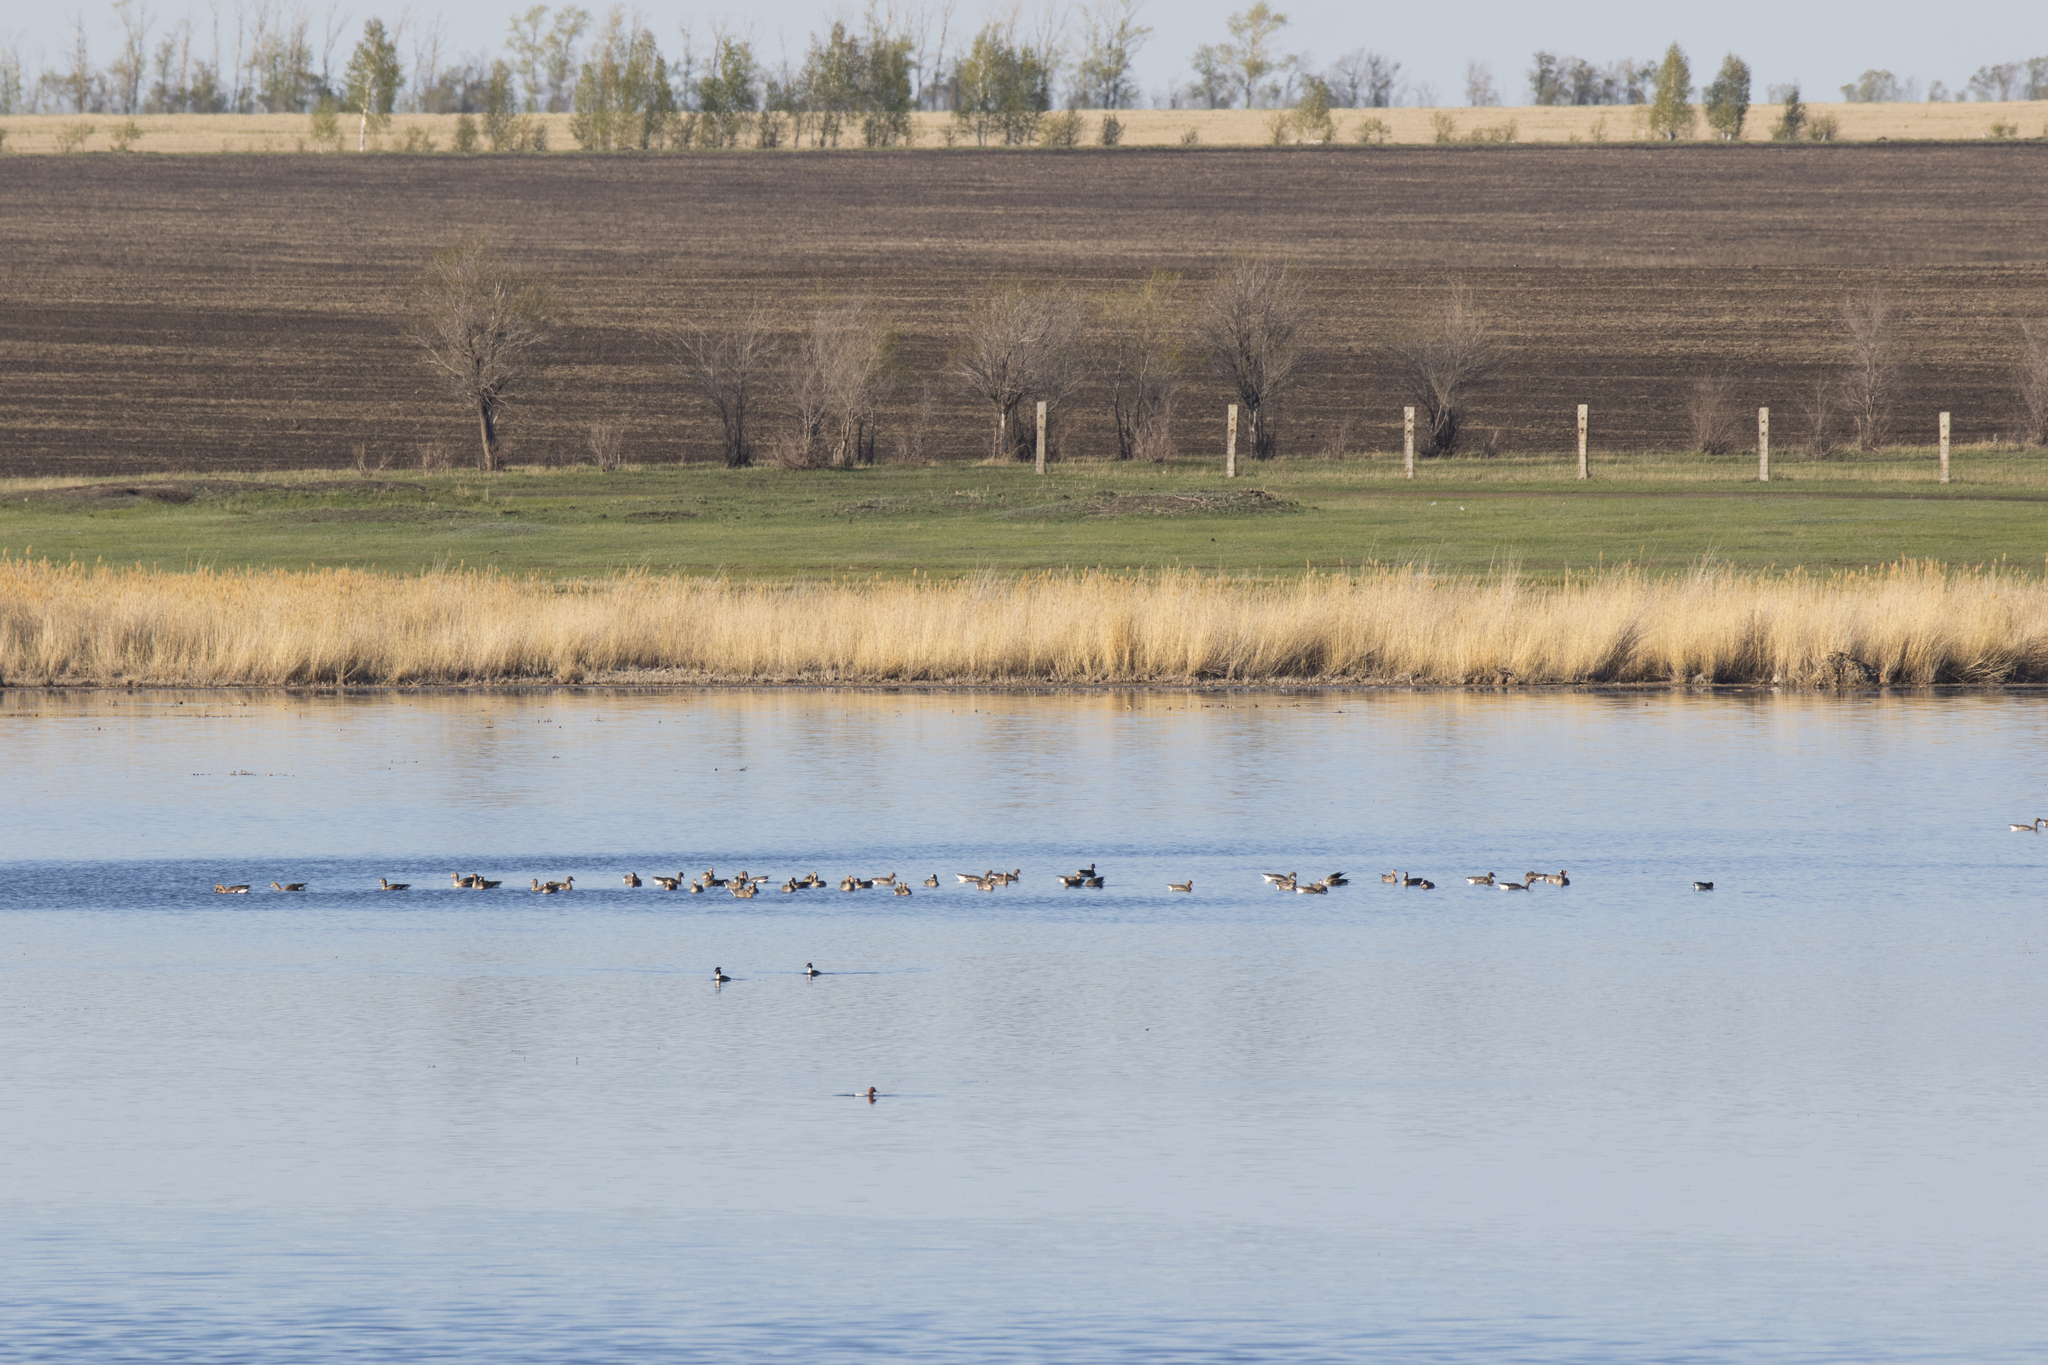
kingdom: Animalia
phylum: Chordata
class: Aves
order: Podicipediformes
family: Podicipedidae
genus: Podiceps
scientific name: Podiceps cristatus
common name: Great crested grebe
